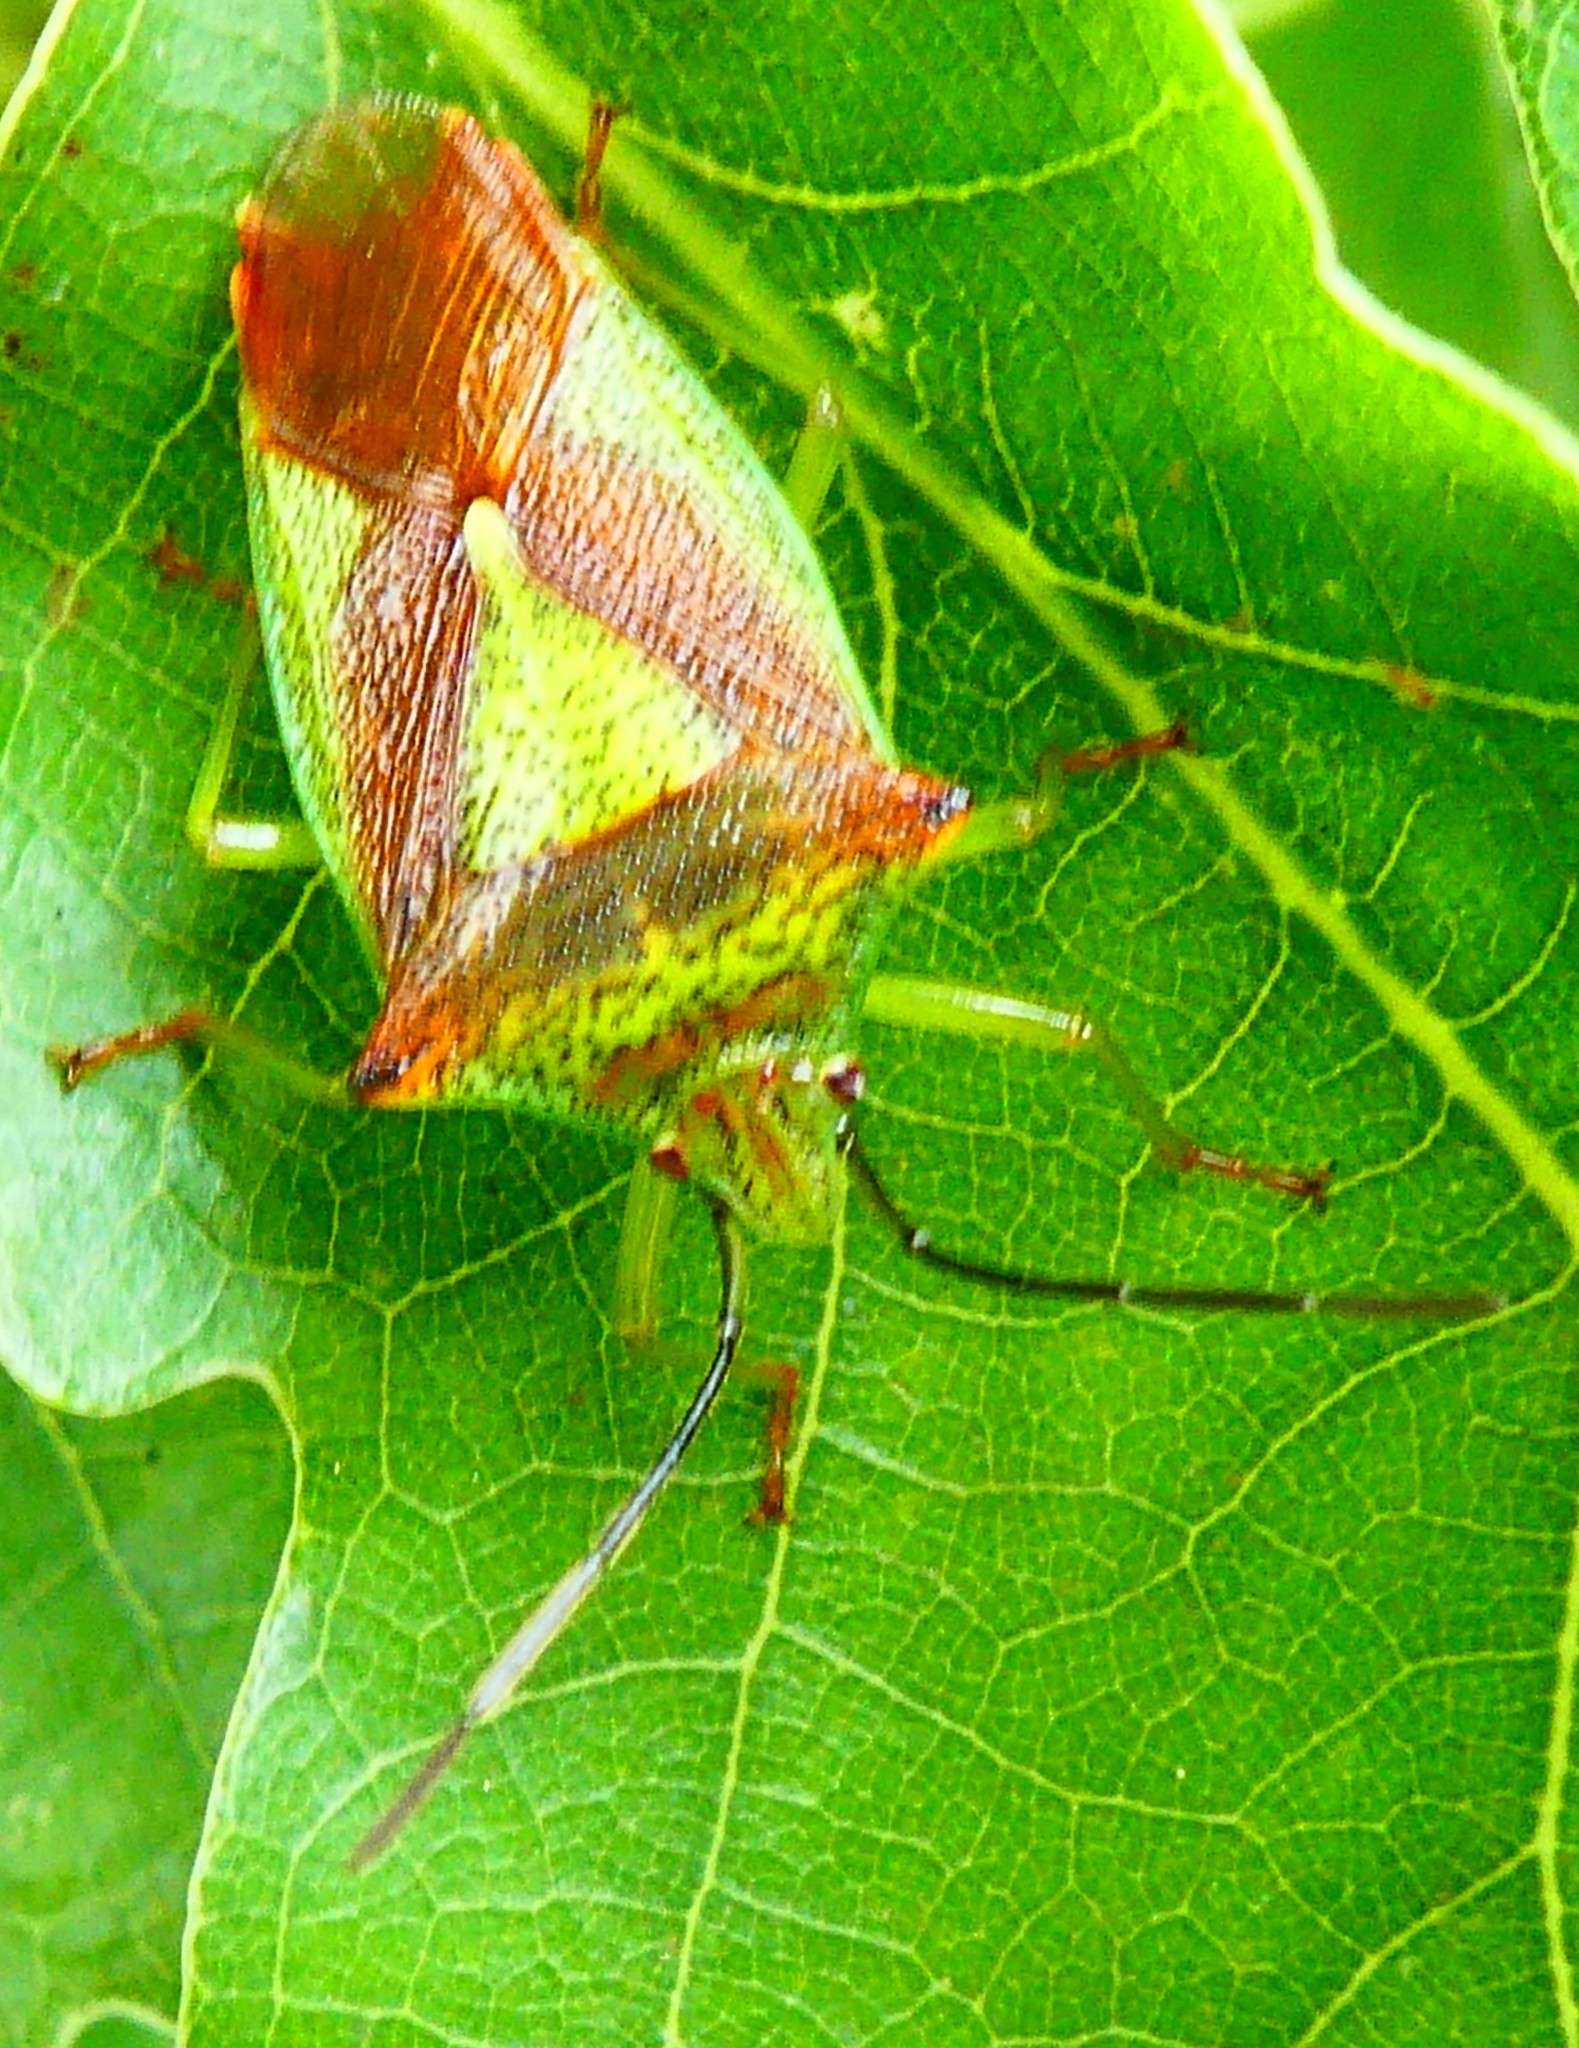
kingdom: Animalia
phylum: Arthropoda
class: Insecta
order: Hemiptera
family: Acanthosomatidae
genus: Acanthosoma
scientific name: Acanthosoma haemorrhoidale
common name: Hawthorn shieldbug
